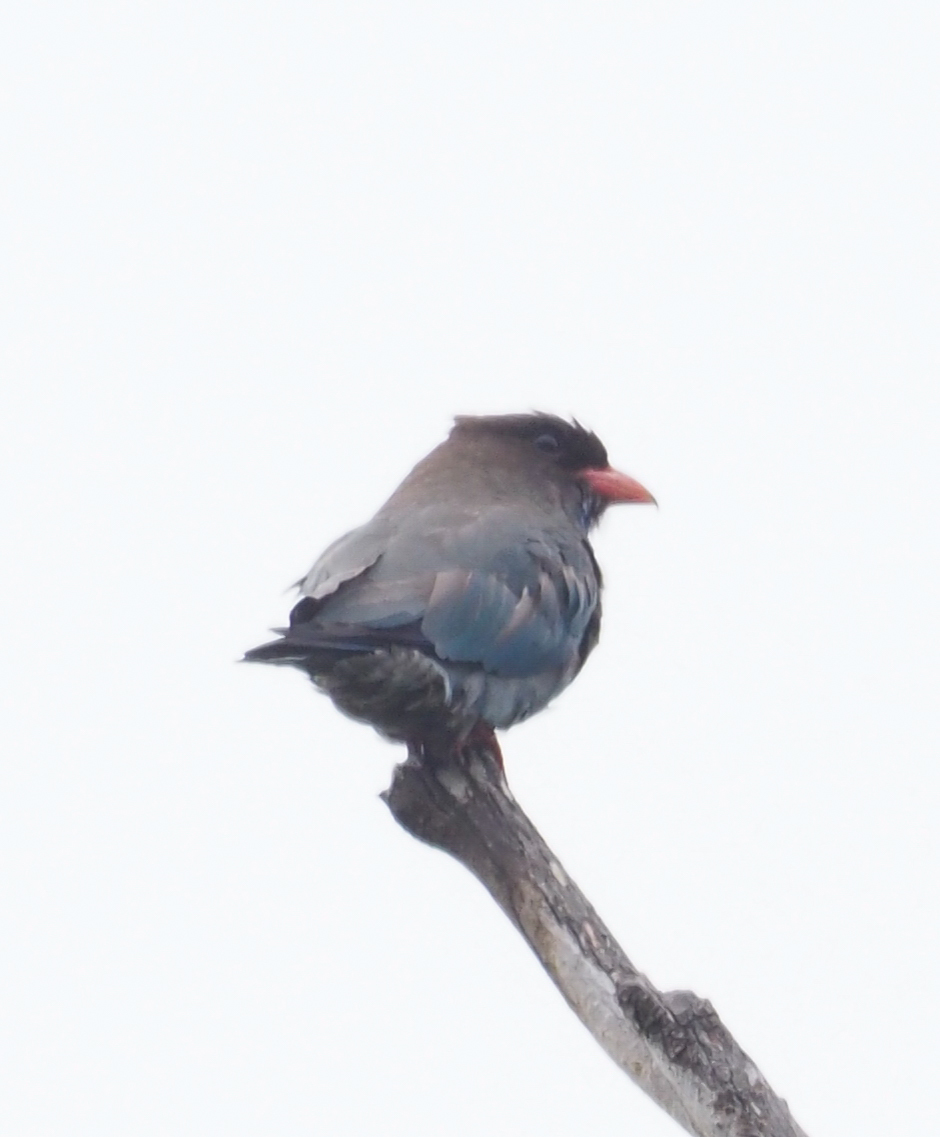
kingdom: Animalia
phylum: Chordata
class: Aves
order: Coraciiformes
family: Coraciidae
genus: Eurystomus
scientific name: Eurystomus orientalis
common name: Oriental dollarbird
